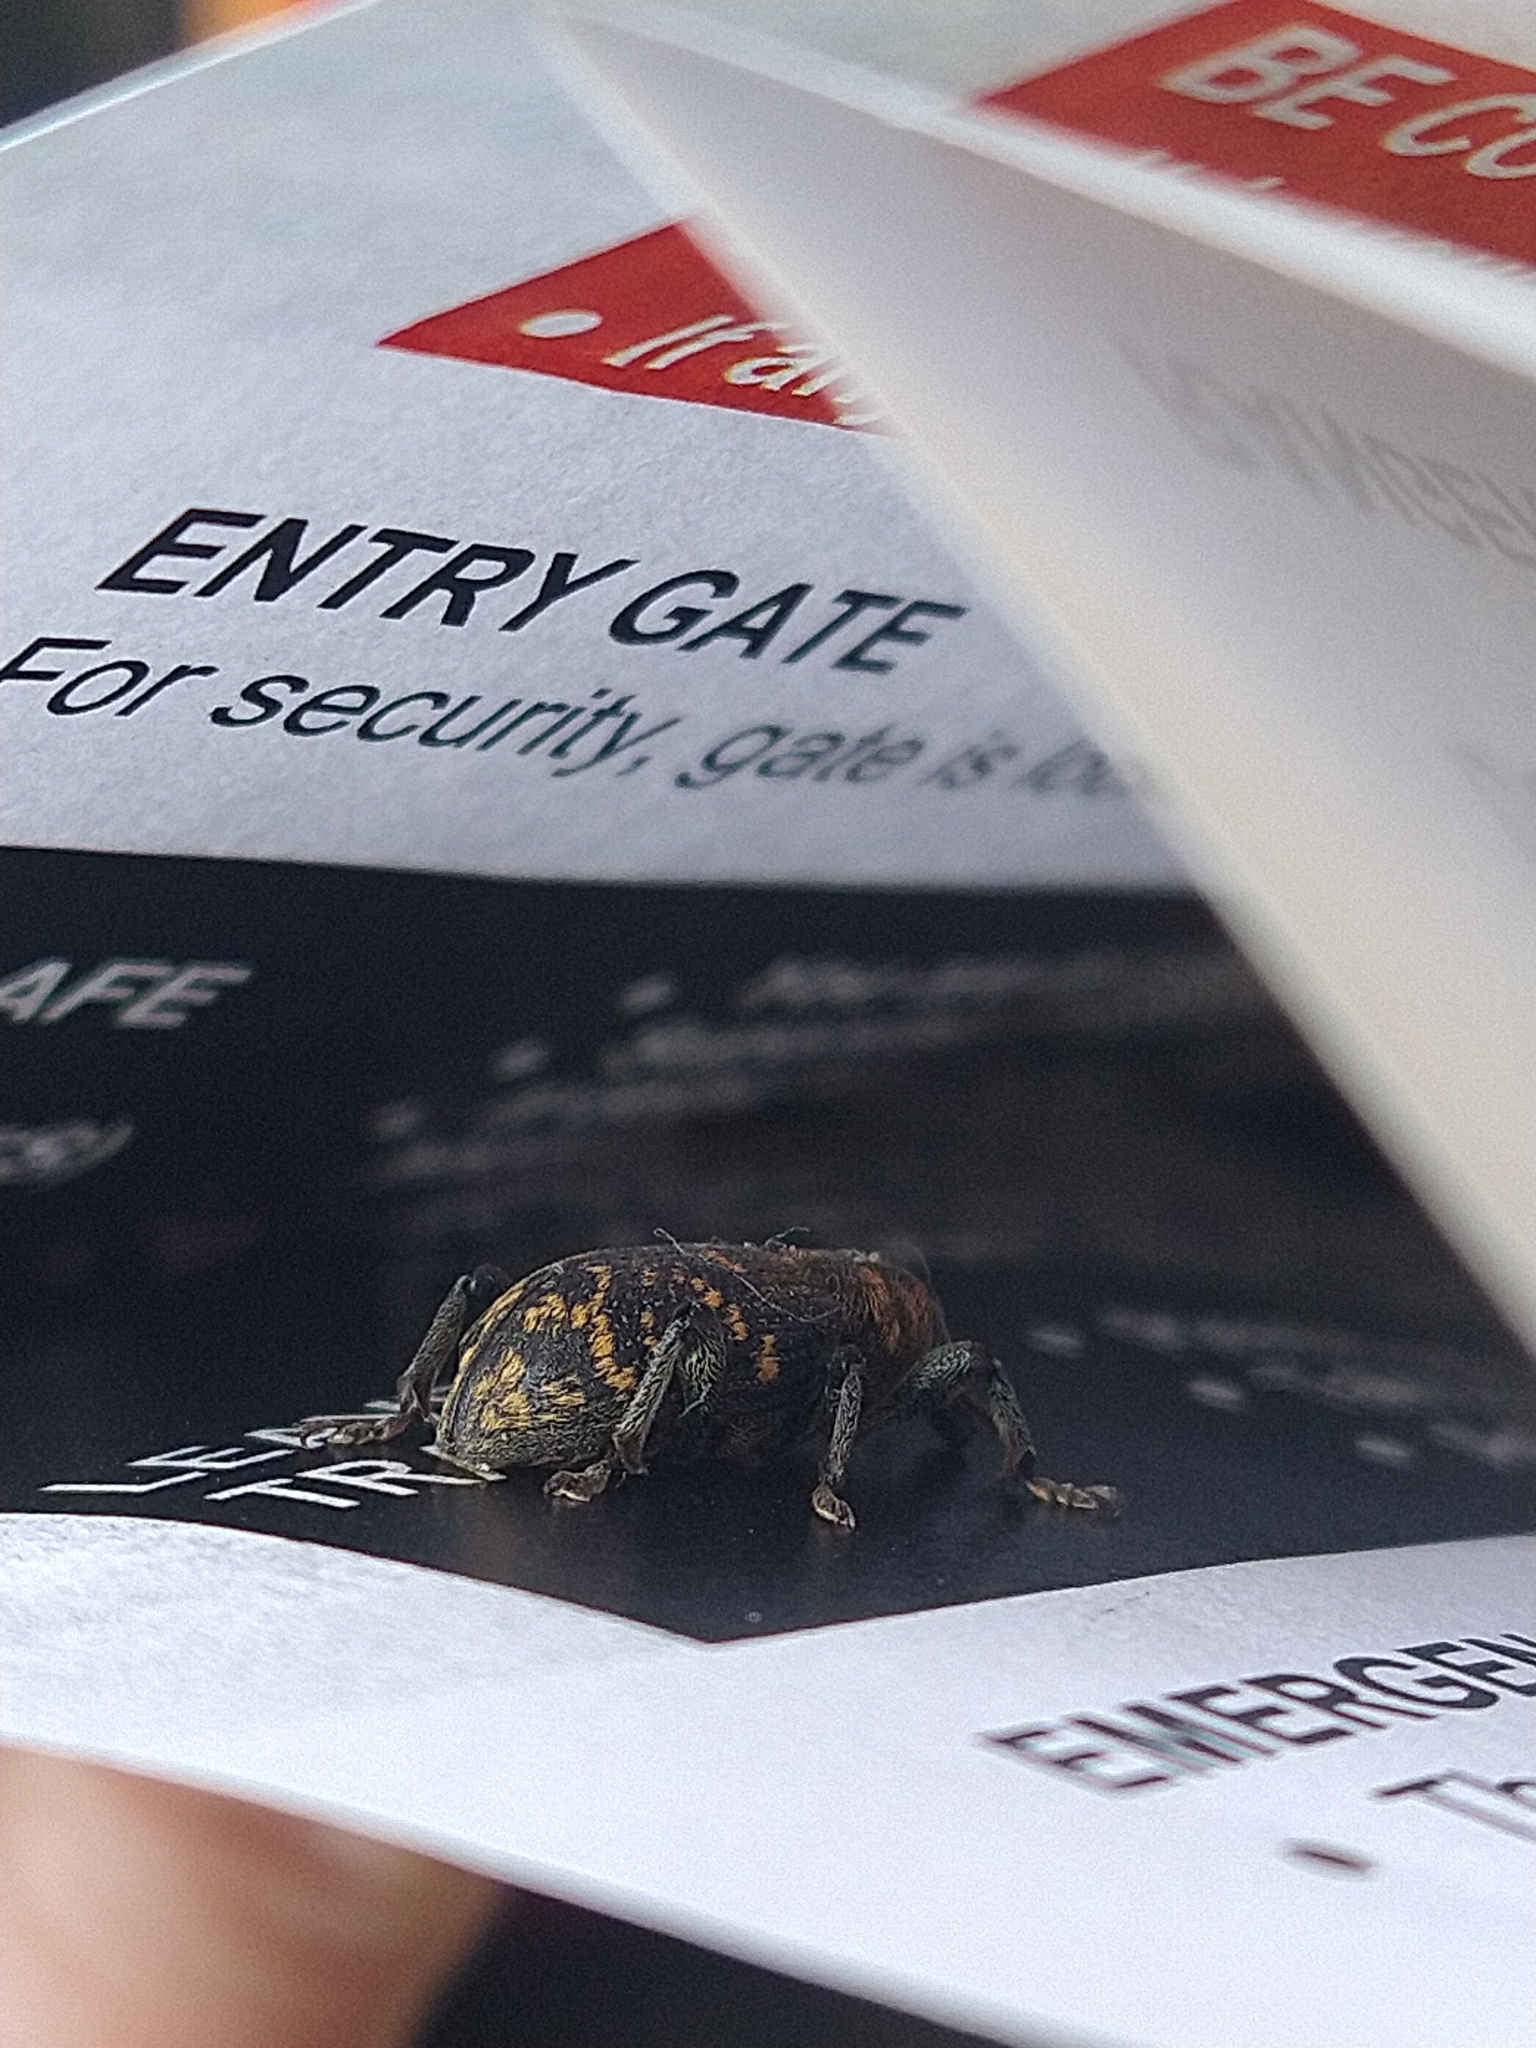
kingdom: Animalia
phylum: Arthropoda
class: Insecta
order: Coleoptera
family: Curculionidae
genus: Hylobius
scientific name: Hylobius abietis
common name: Large pine weevil
